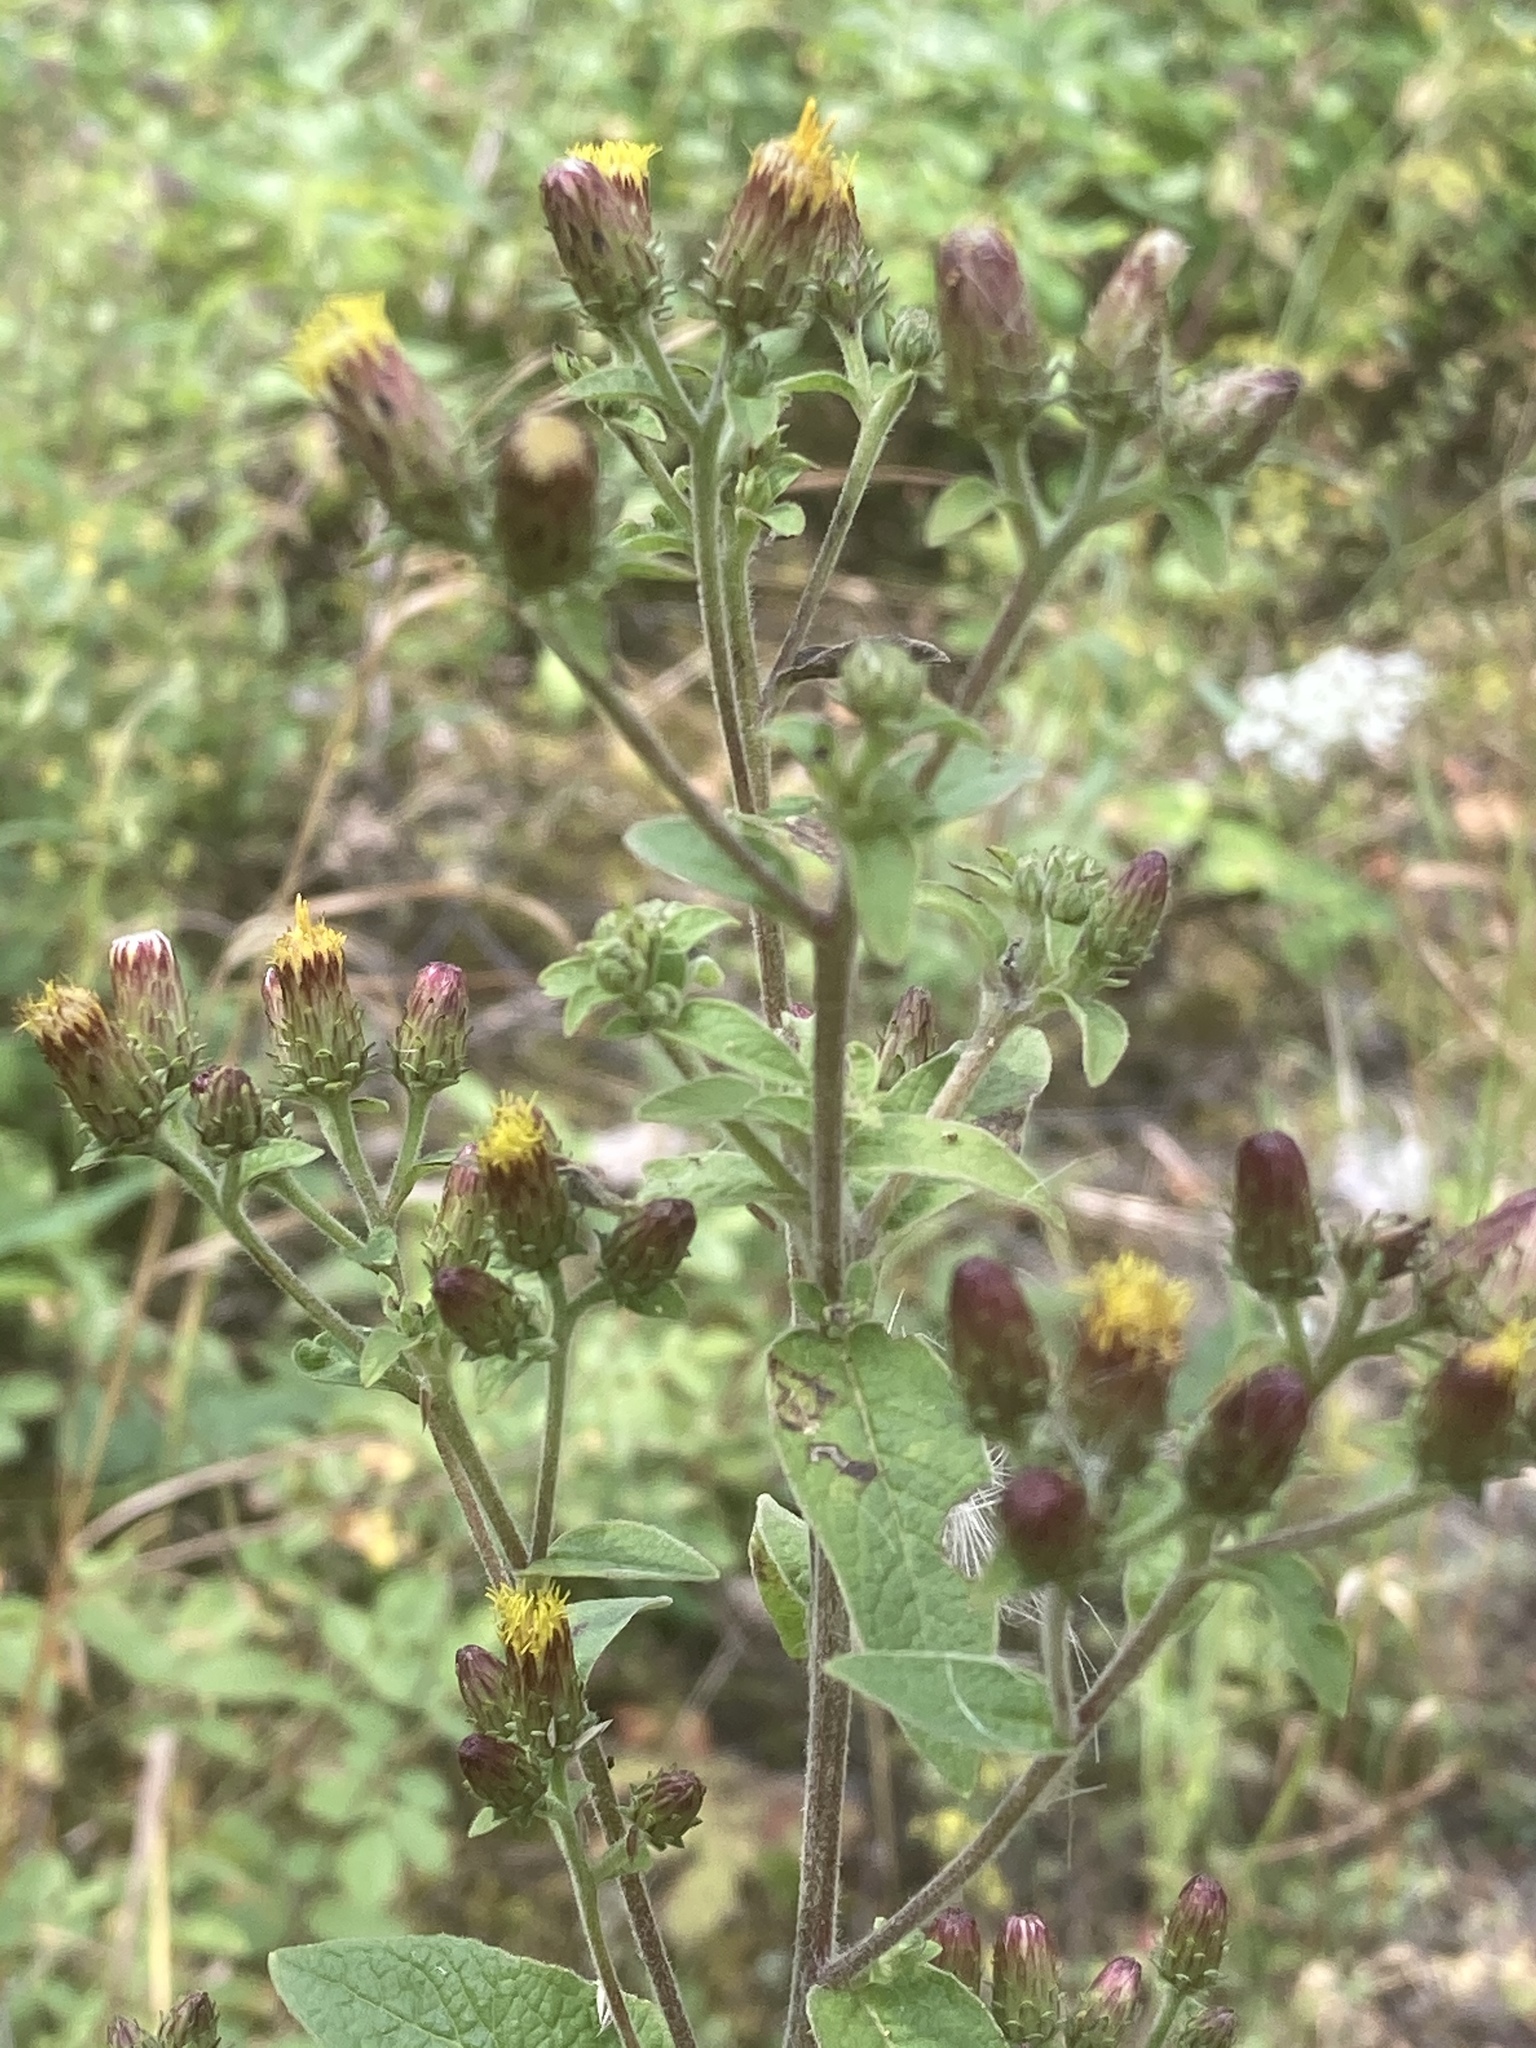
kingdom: Plantae
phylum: Tracheophyta
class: Magnoliopsida
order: Asterales
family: Asteraceae
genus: Pentanema
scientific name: Pentanema squarrosum
